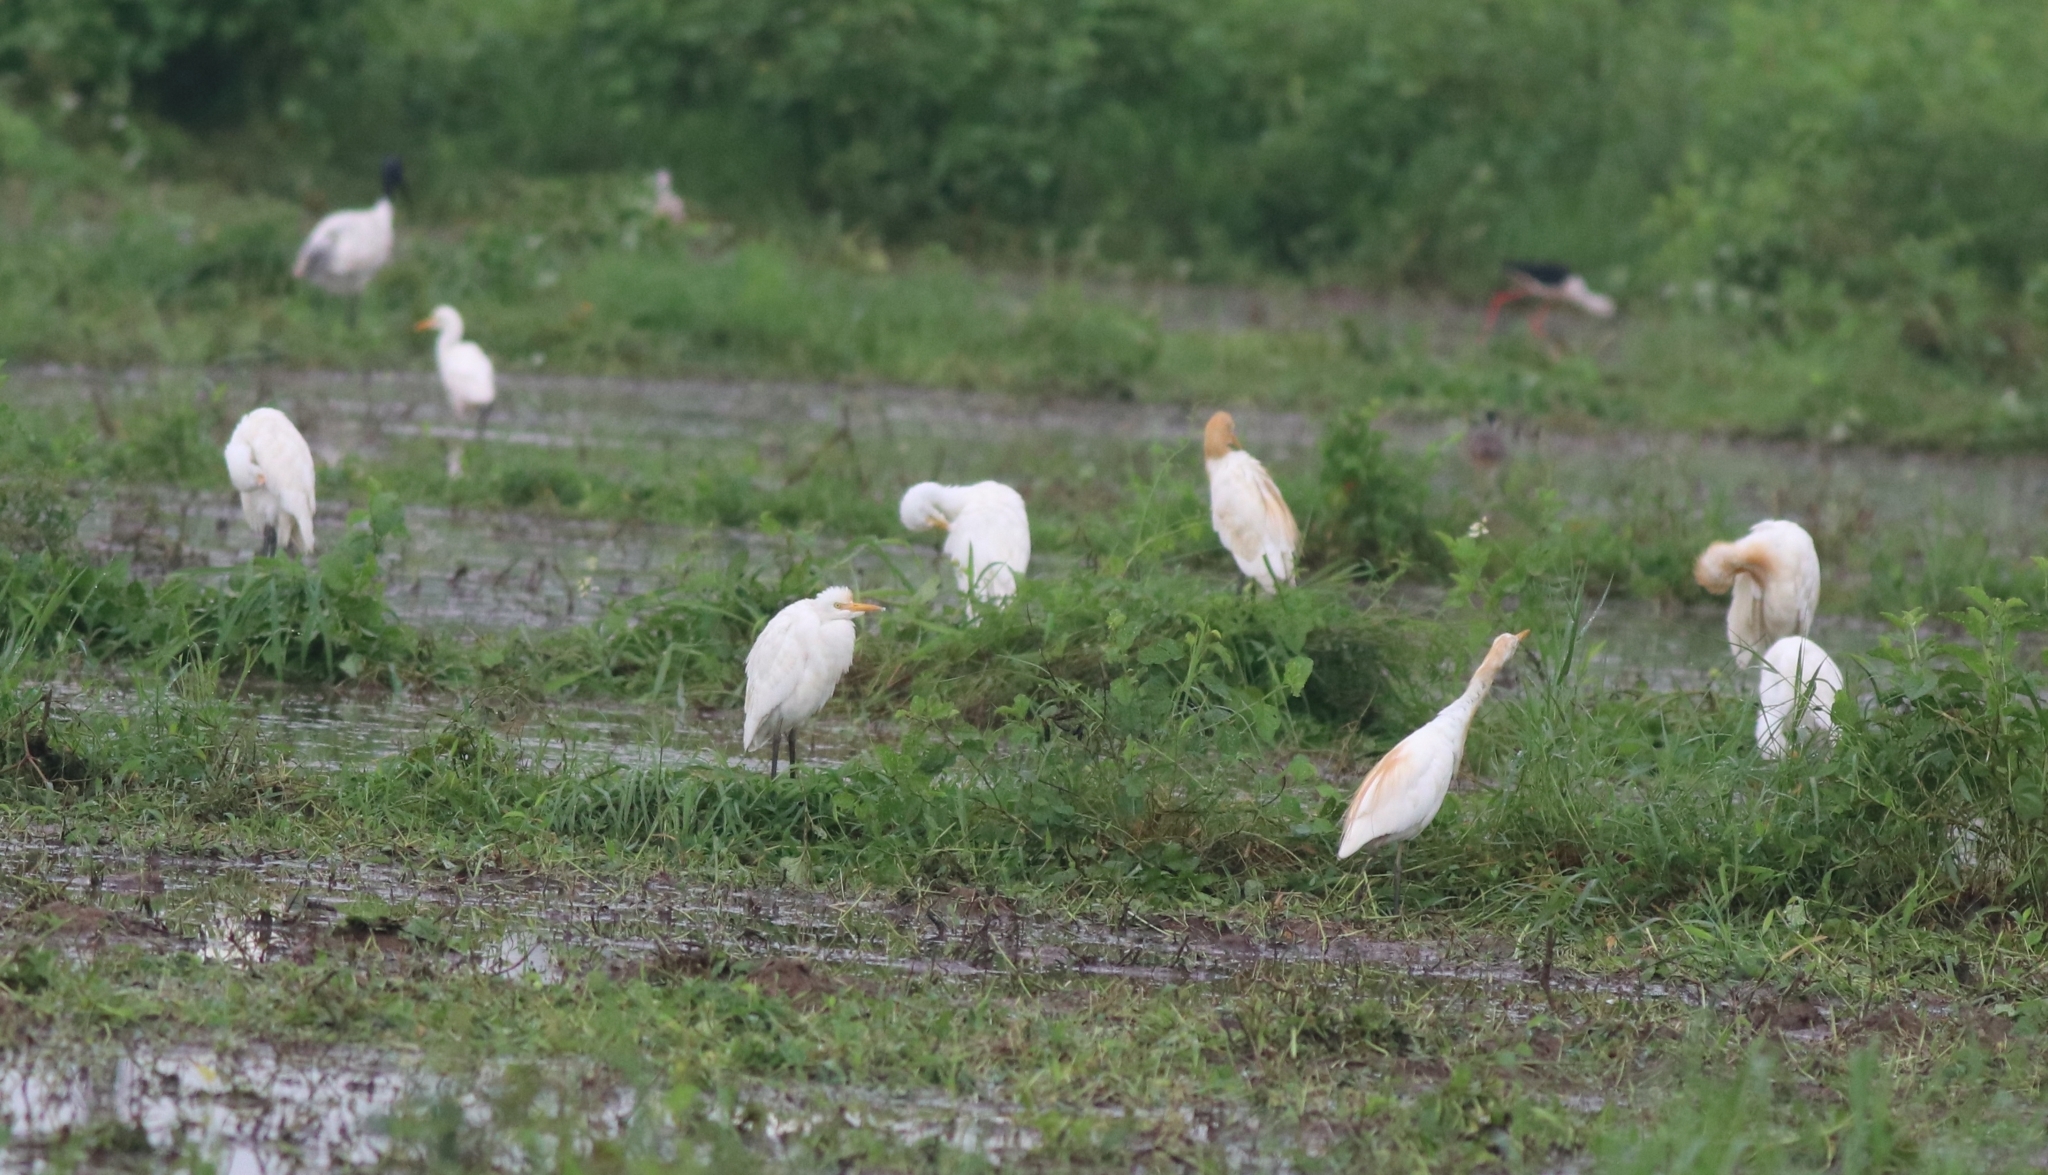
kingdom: Animalia
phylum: Chordata
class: Aves
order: Pelecaniformes
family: Ardeidae
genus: Bubulcus
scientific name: Bubulcus coromandus
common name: Eastern cattle egret
